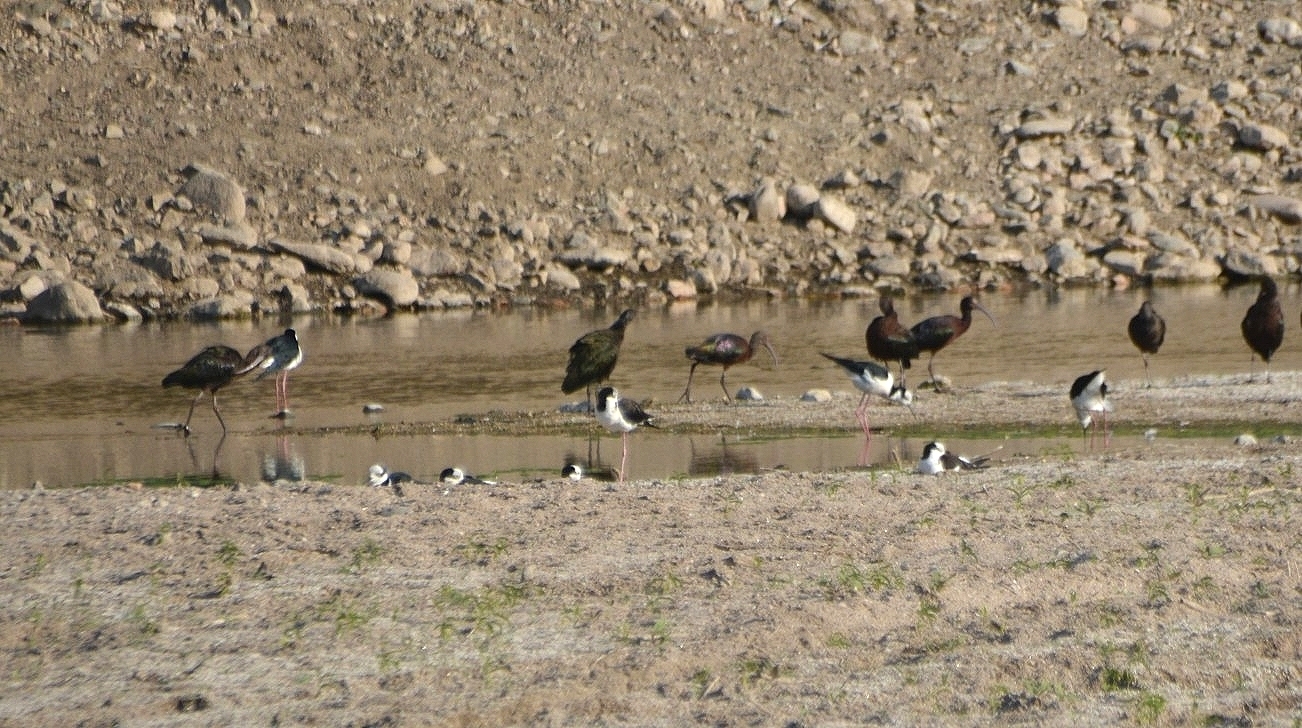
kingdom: Animalia
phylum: Chordata
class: Aves
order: Charadriiformes
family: Recurvirostridae
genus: Himantopus
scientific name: Himantopus mexicanus
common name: Black-necked stilt
